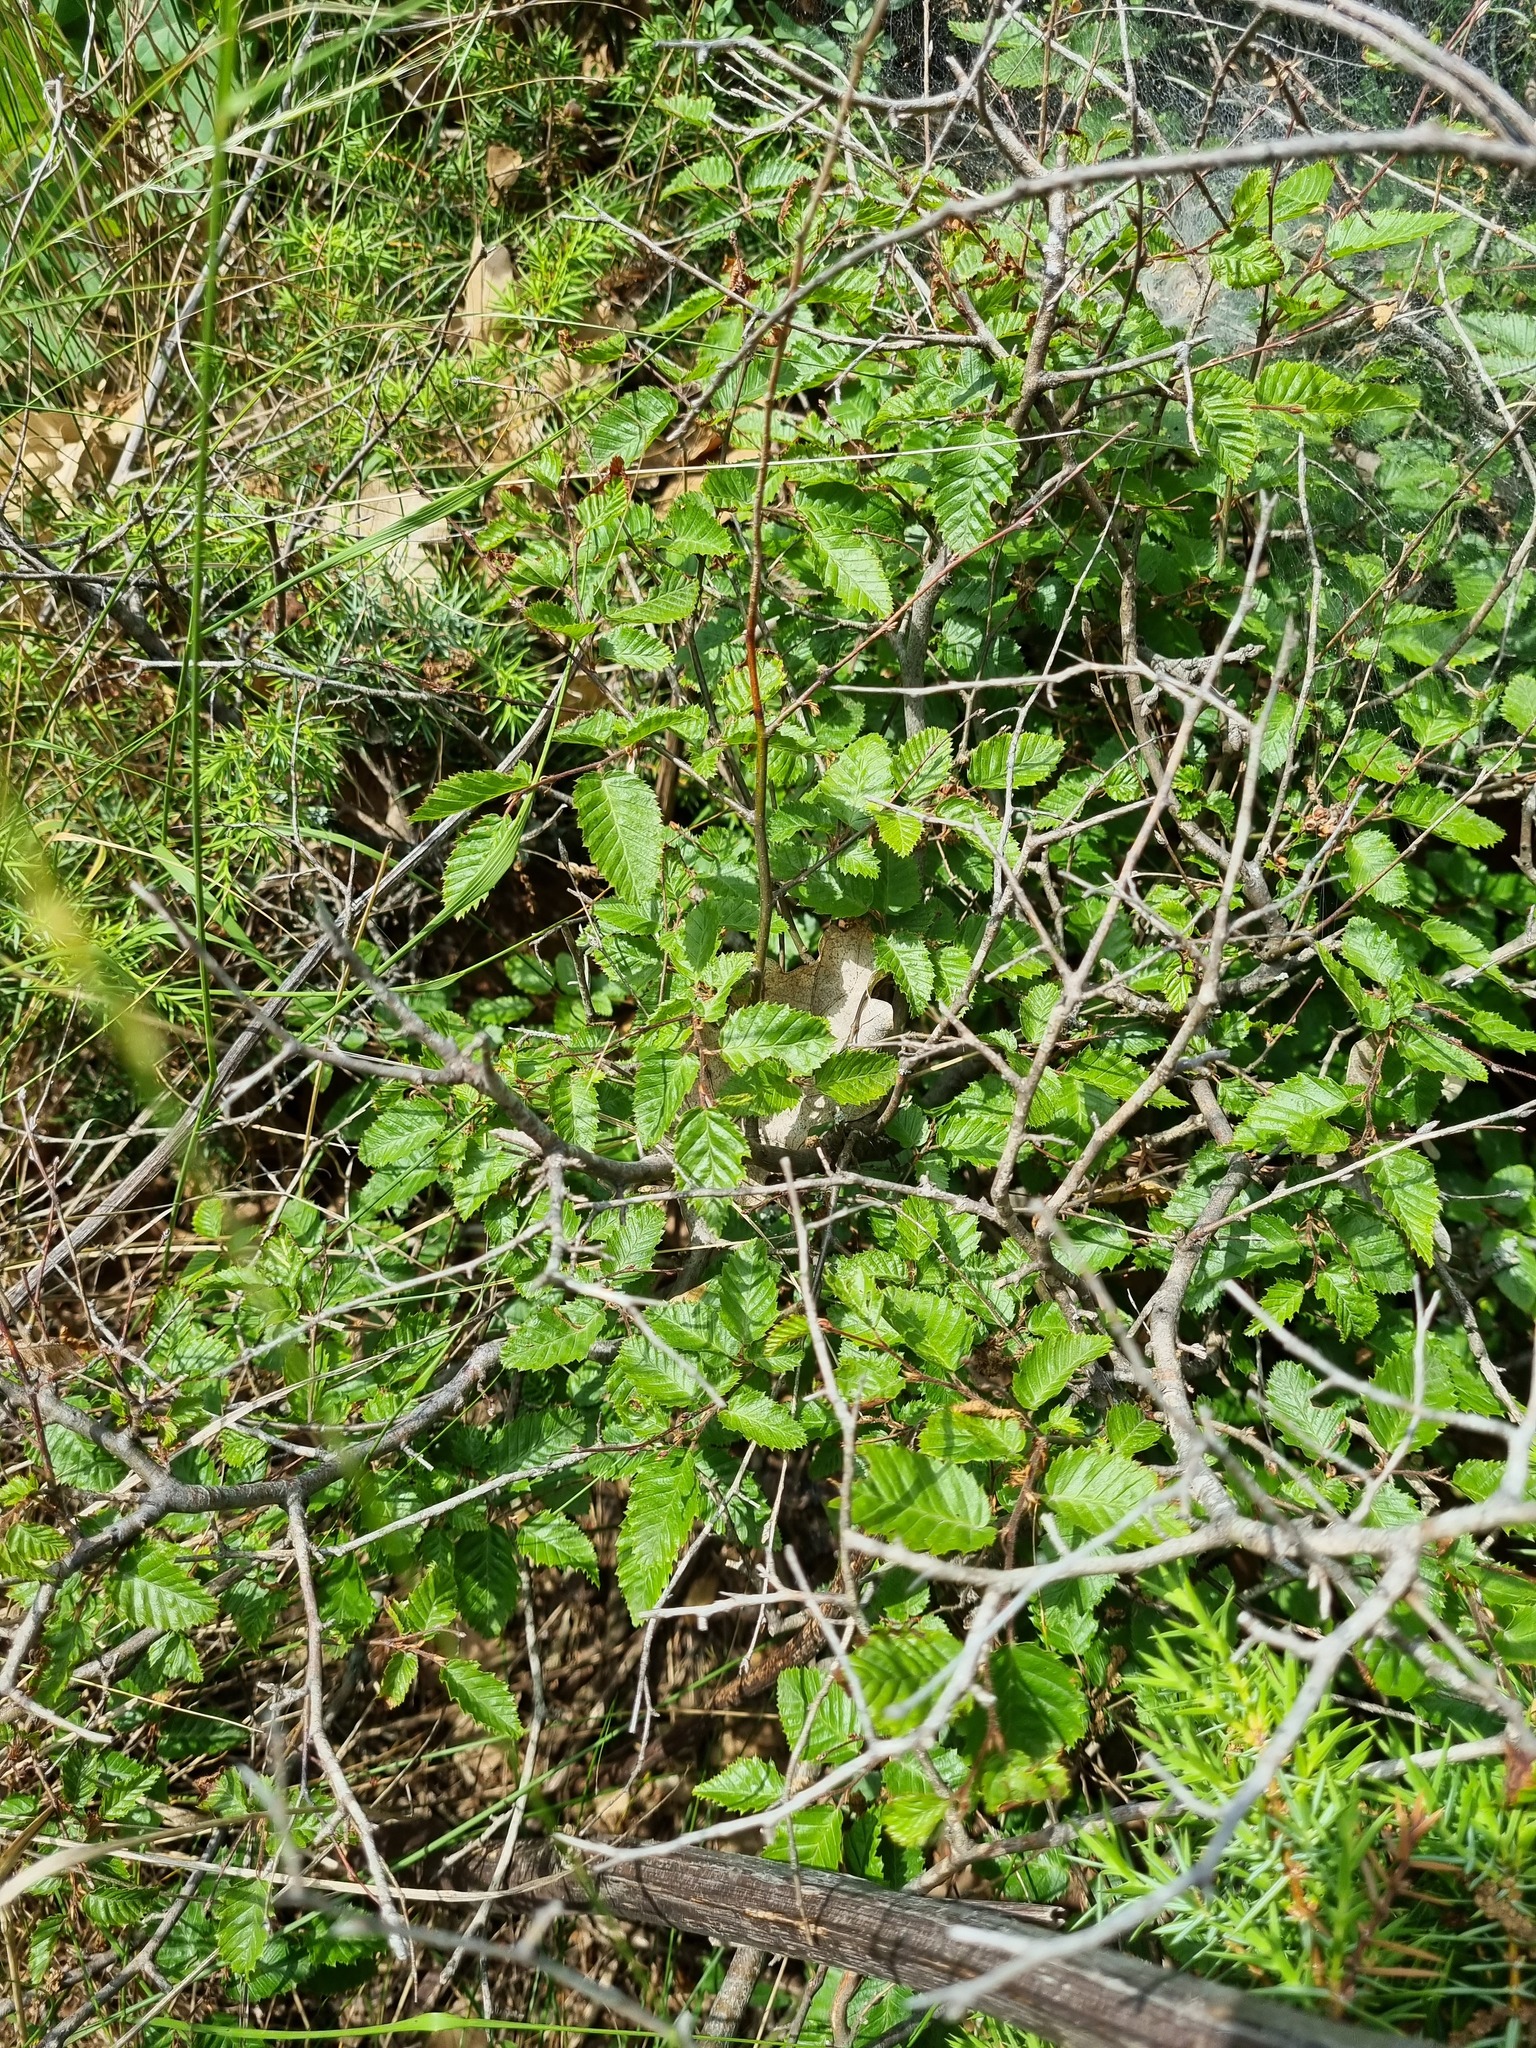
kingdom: Plantae
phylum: Tracheophyta
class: Magnoliopsida
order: Fagales
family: Betulaceae
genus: Carpinus
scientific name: Carpinus orientalis
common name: Eastern hornbeam
